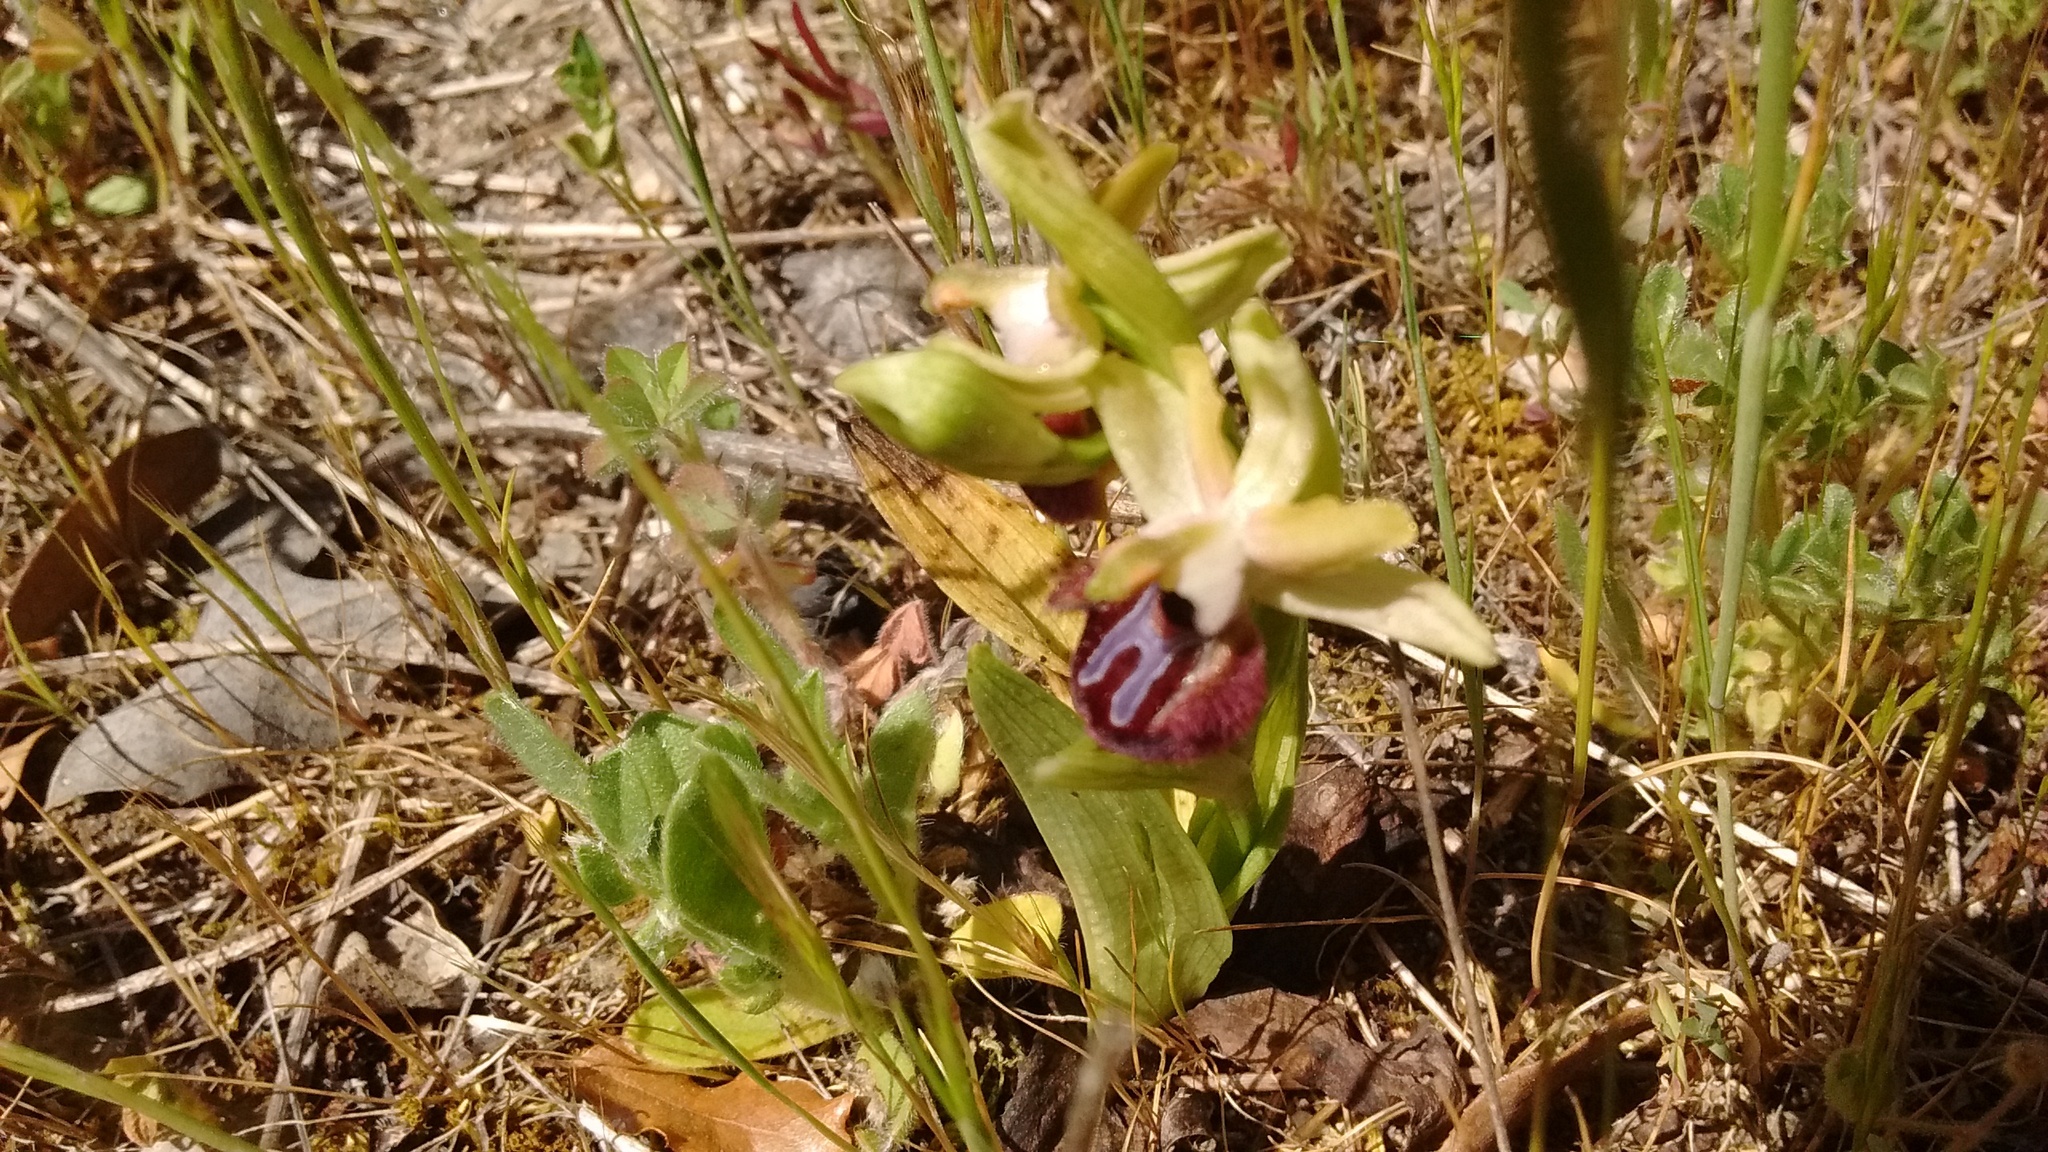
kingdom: Plantae
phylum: Tracheophyta
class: Liliopsida
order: Asparagales
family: Orchidaceae
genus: Ophrys
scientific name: Ophrys sphegodes
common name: Early spider-orchid
